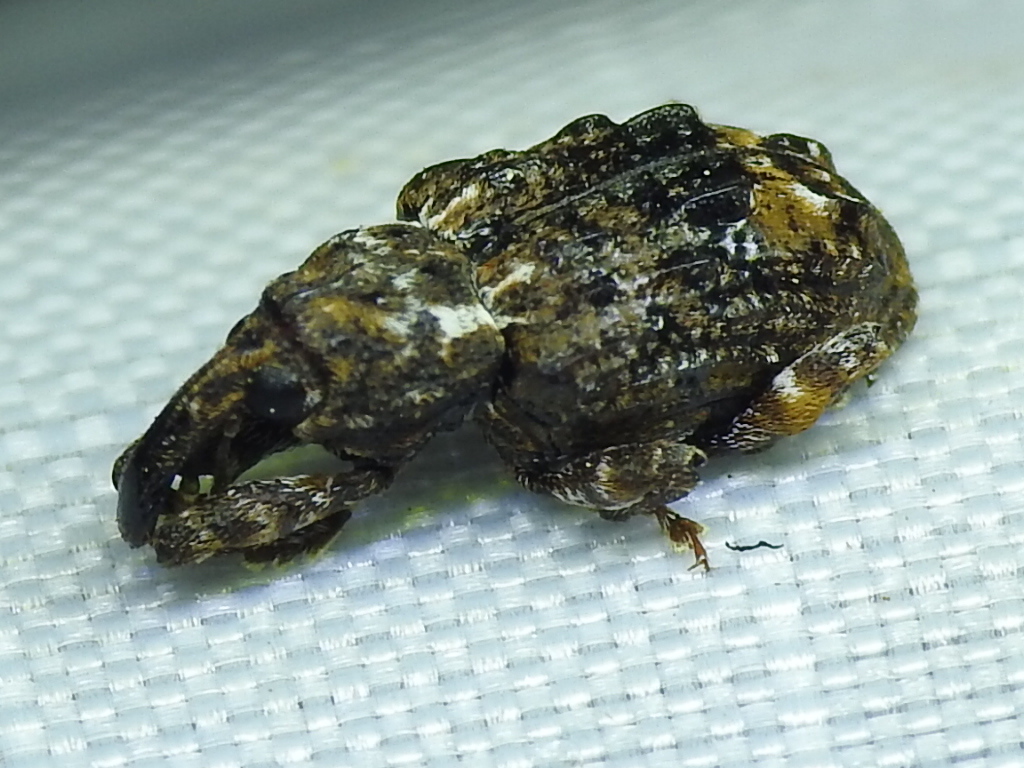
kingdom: Animalia
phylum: Arthropoda
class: Insecta
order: Coleoptera
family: Curculionidae
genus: Conotrachelus
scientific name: Conotrachelus nenuphar
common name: Plum curculio
